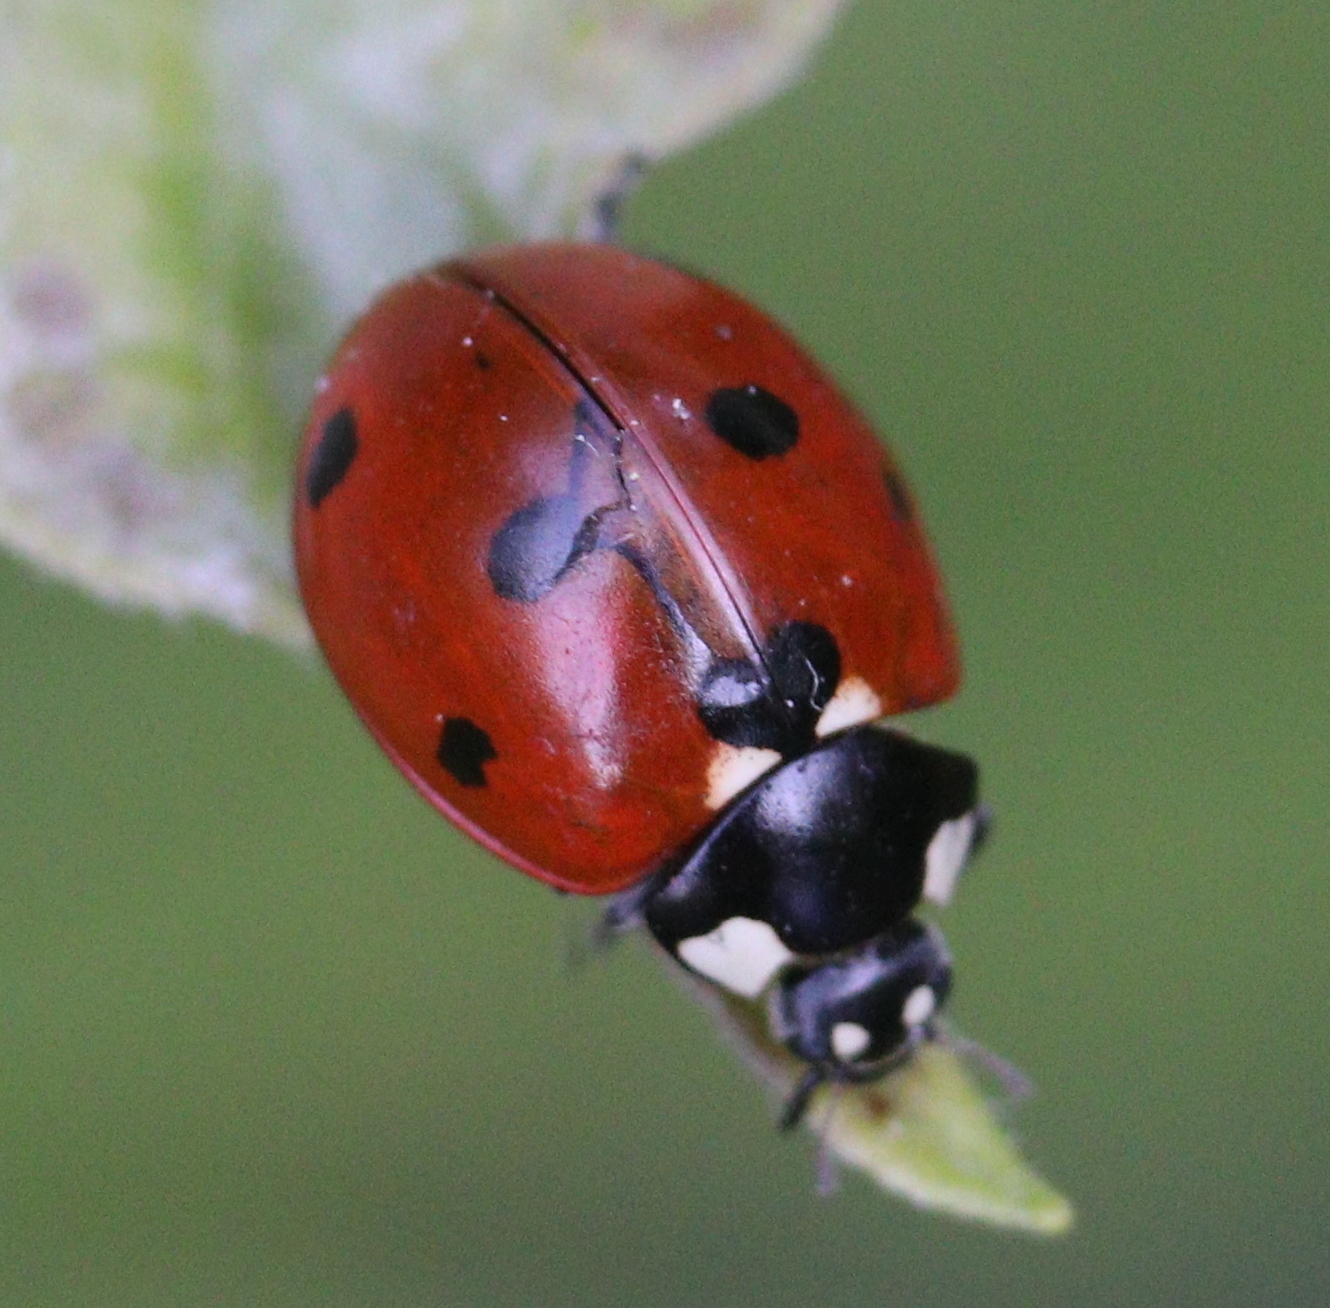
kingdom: Animalia
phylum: Arthropoda
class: Insecta
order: Coleoptera
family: Coccinellidae
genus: Coccinella
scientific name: Coccinella septempunctata
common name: Sevenspotted lady beetle
